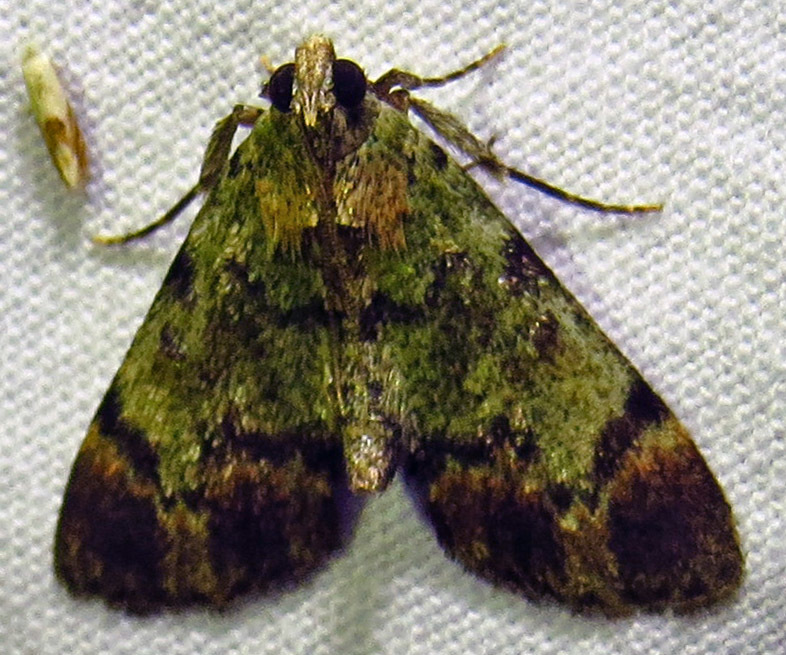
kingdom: Animalia
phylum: Arthropoda
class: Insecta
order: Lepidoptera
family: Pyralidae
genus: Epipaschia
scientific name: Epipaschia superatalis
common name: Dimorphic macalla moth
